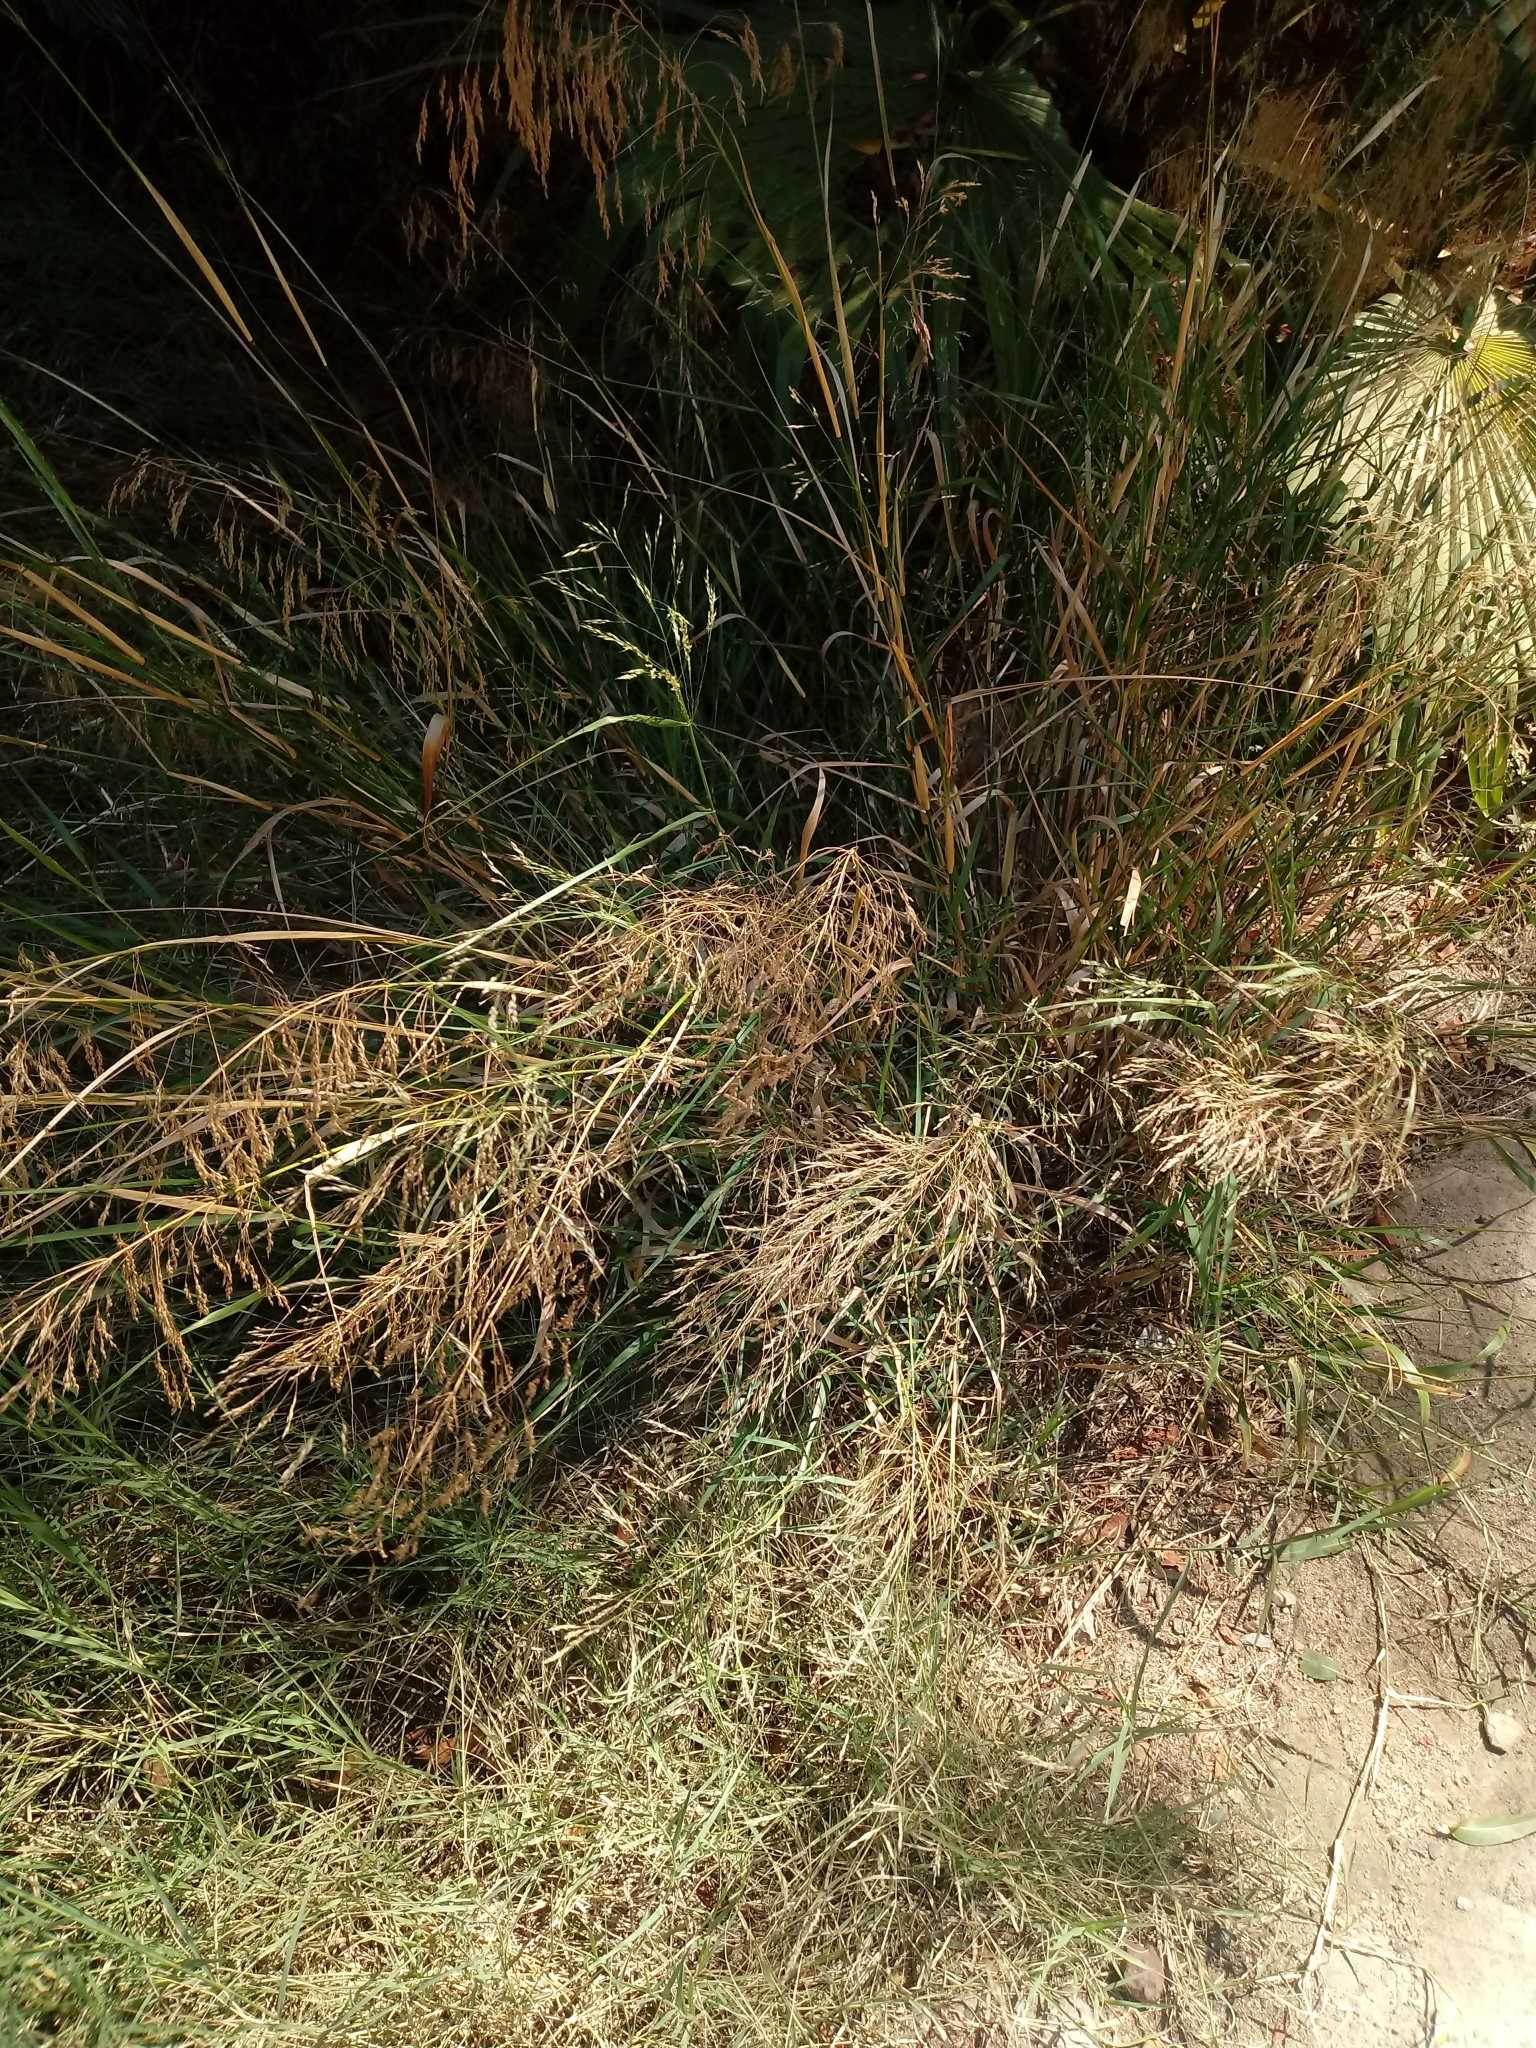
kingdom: Plantae
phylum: Tracheophyta
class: Liliopsida
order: Poales
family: Poaceae
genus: Oloptum
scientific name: Oloptum miliaceum
